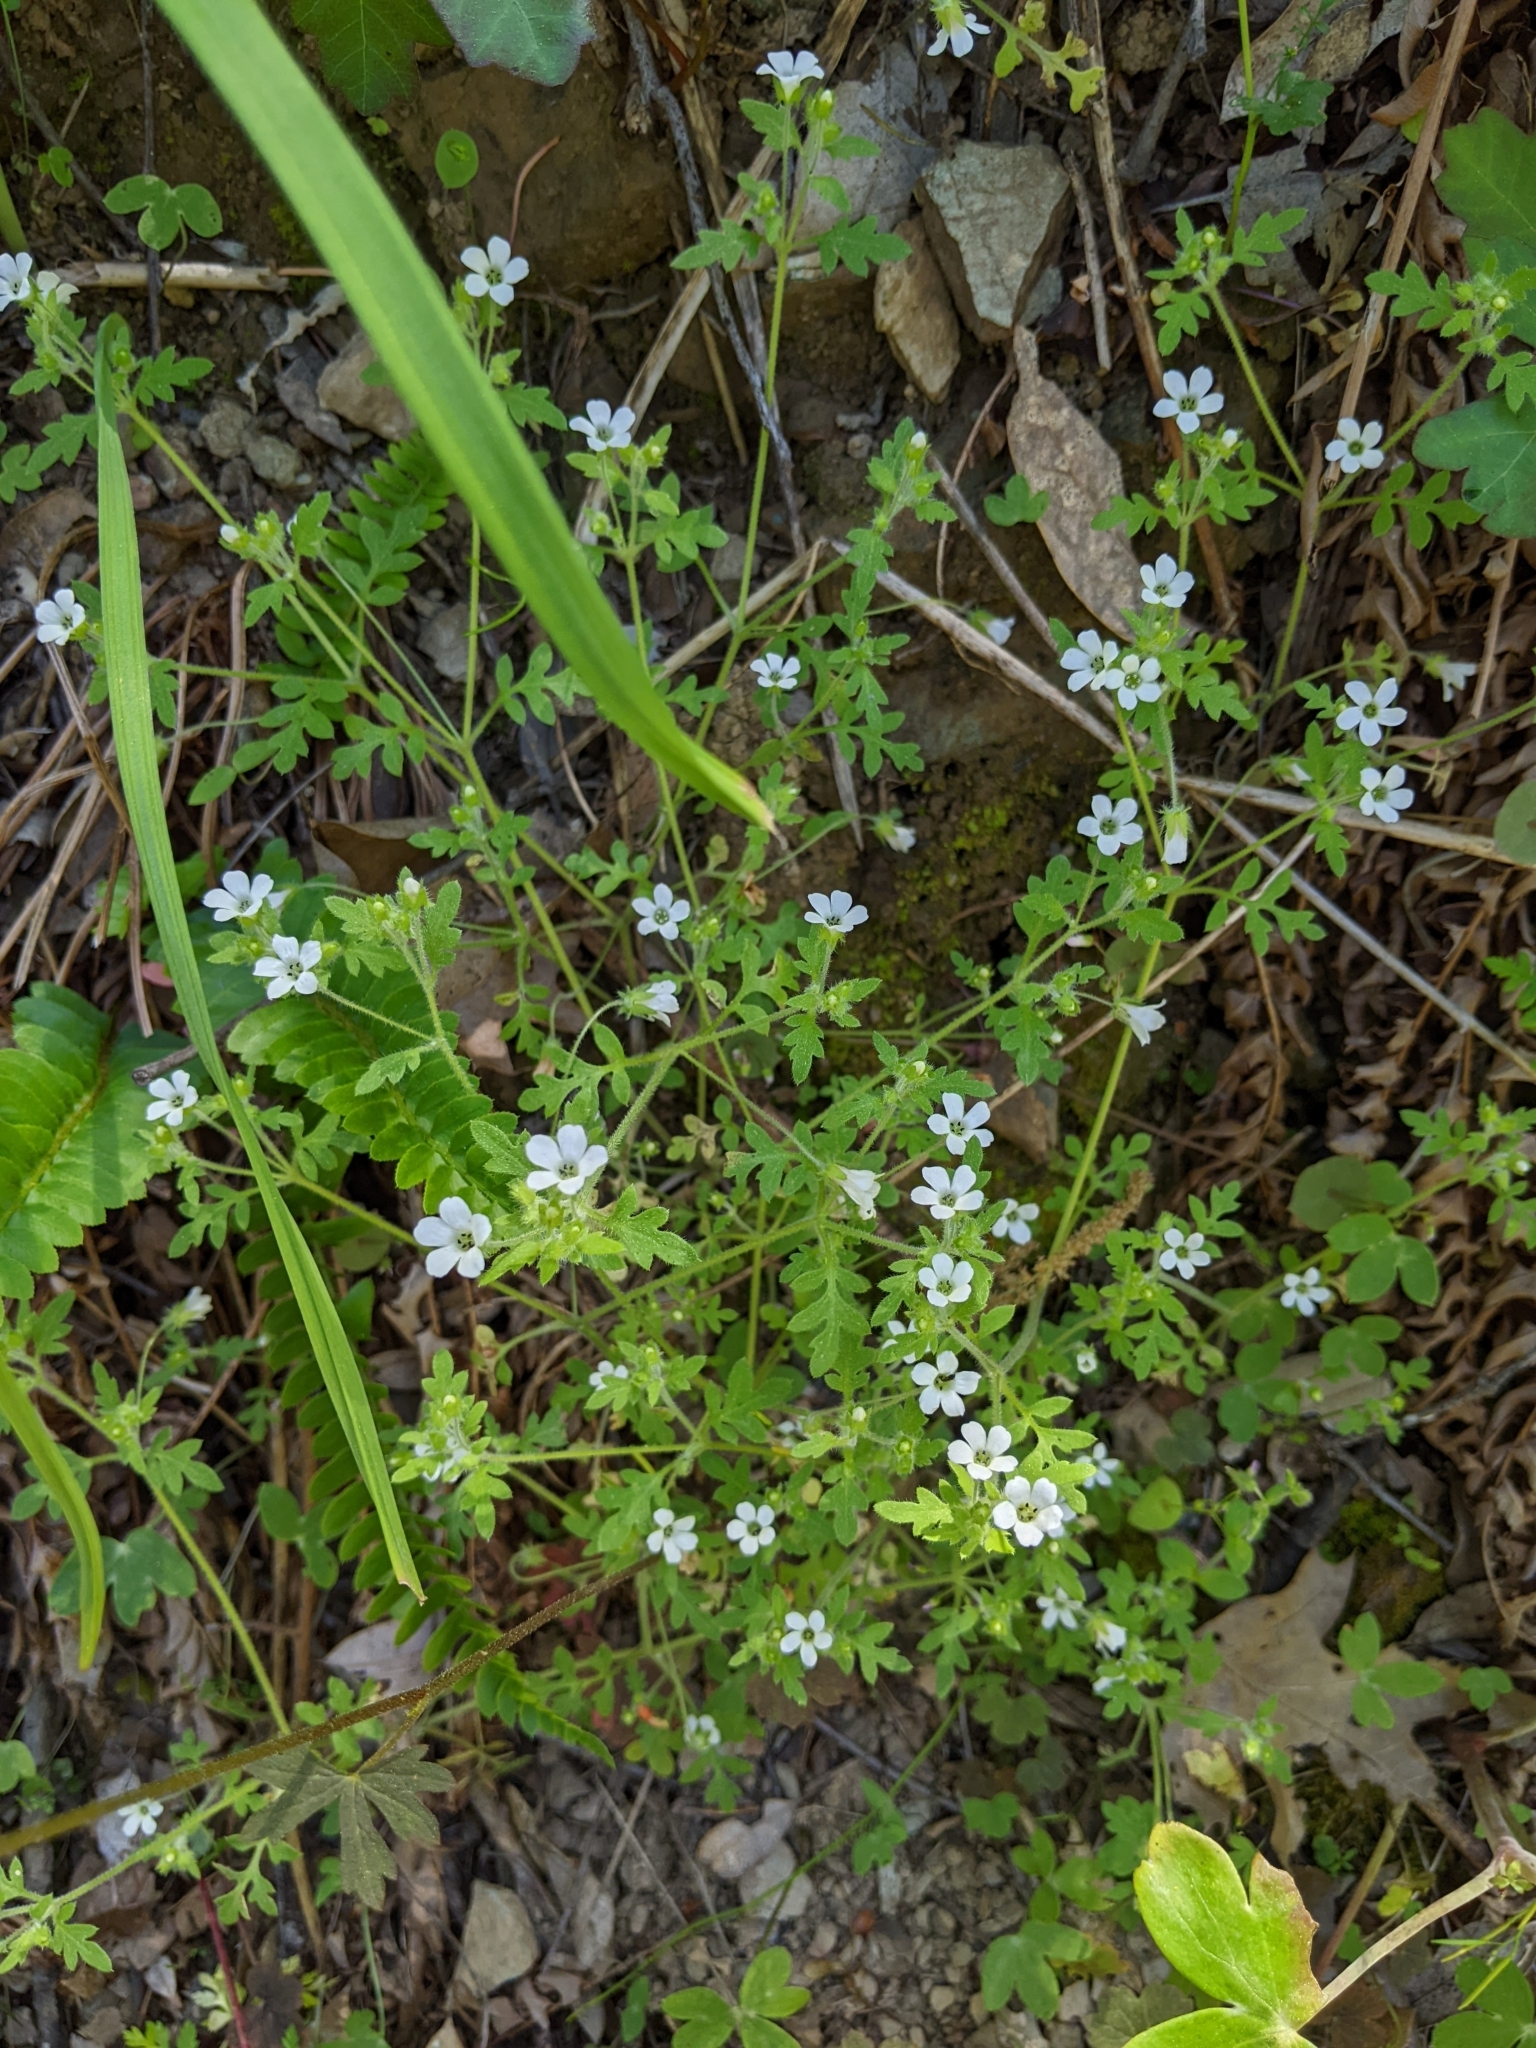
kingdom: Plantae
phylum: Tracheophyta
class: Magnoliopsida
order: Boraginales
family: Hydrophyllaceae
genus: Nemophila
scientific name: Nemophila heterophylla
